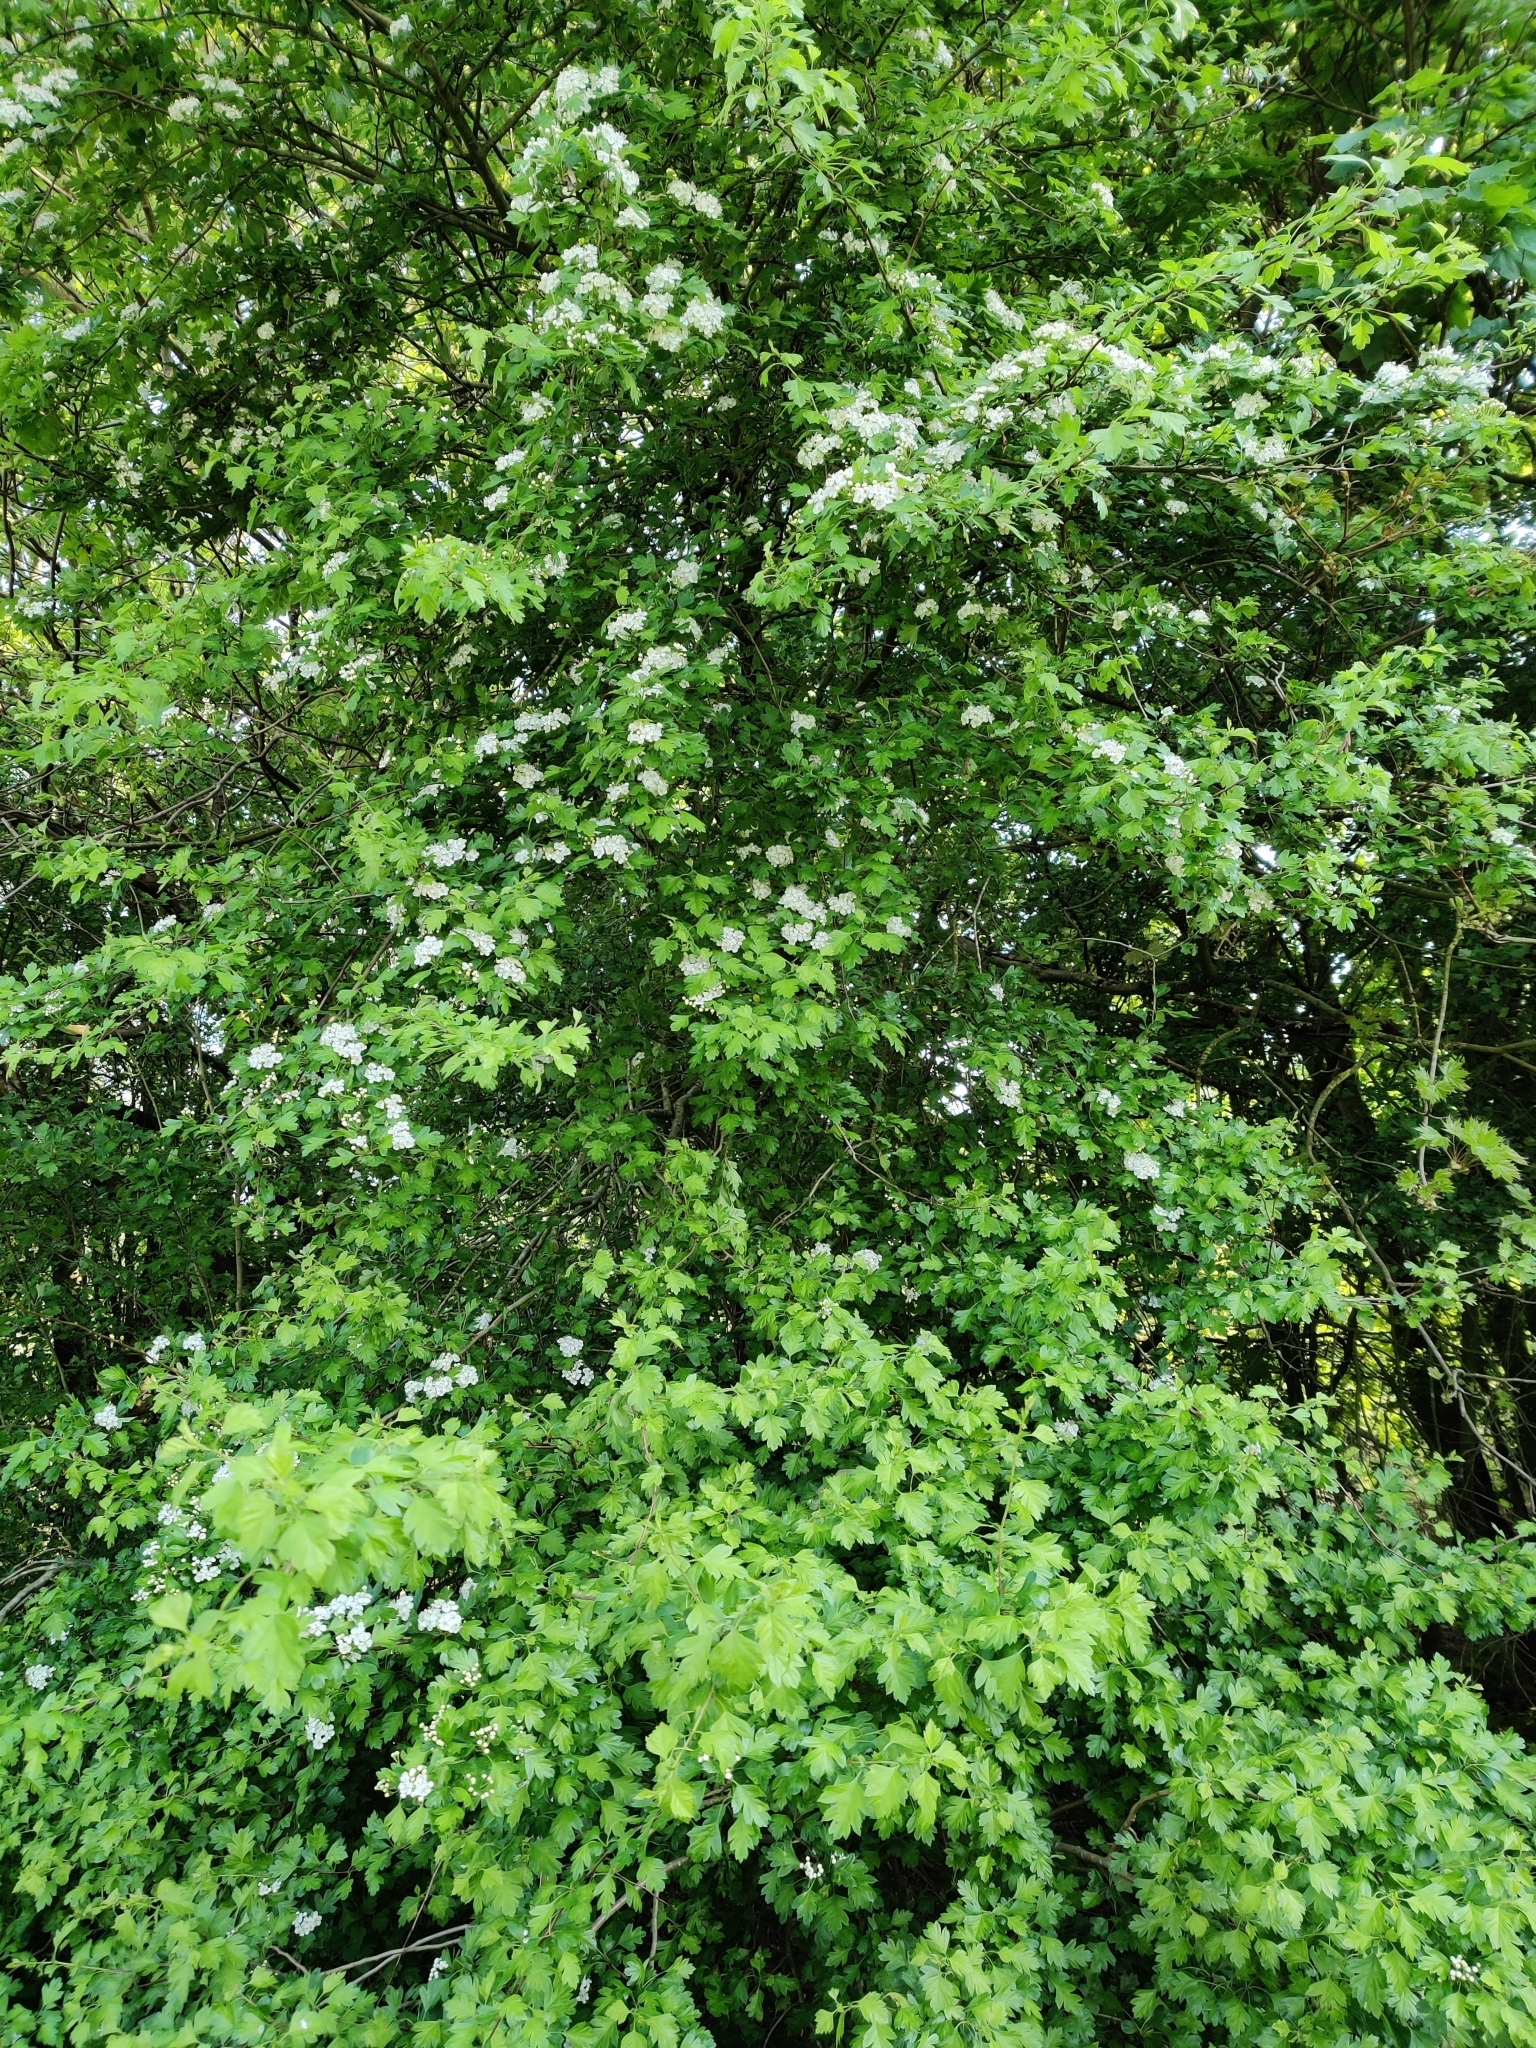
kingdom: Plantae
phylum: Tracheophyta
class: Magnoliopsida
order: Rosales
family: Rosaceae
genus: Crataegus
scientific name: Crataegus monogyna
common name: Hawthorn
